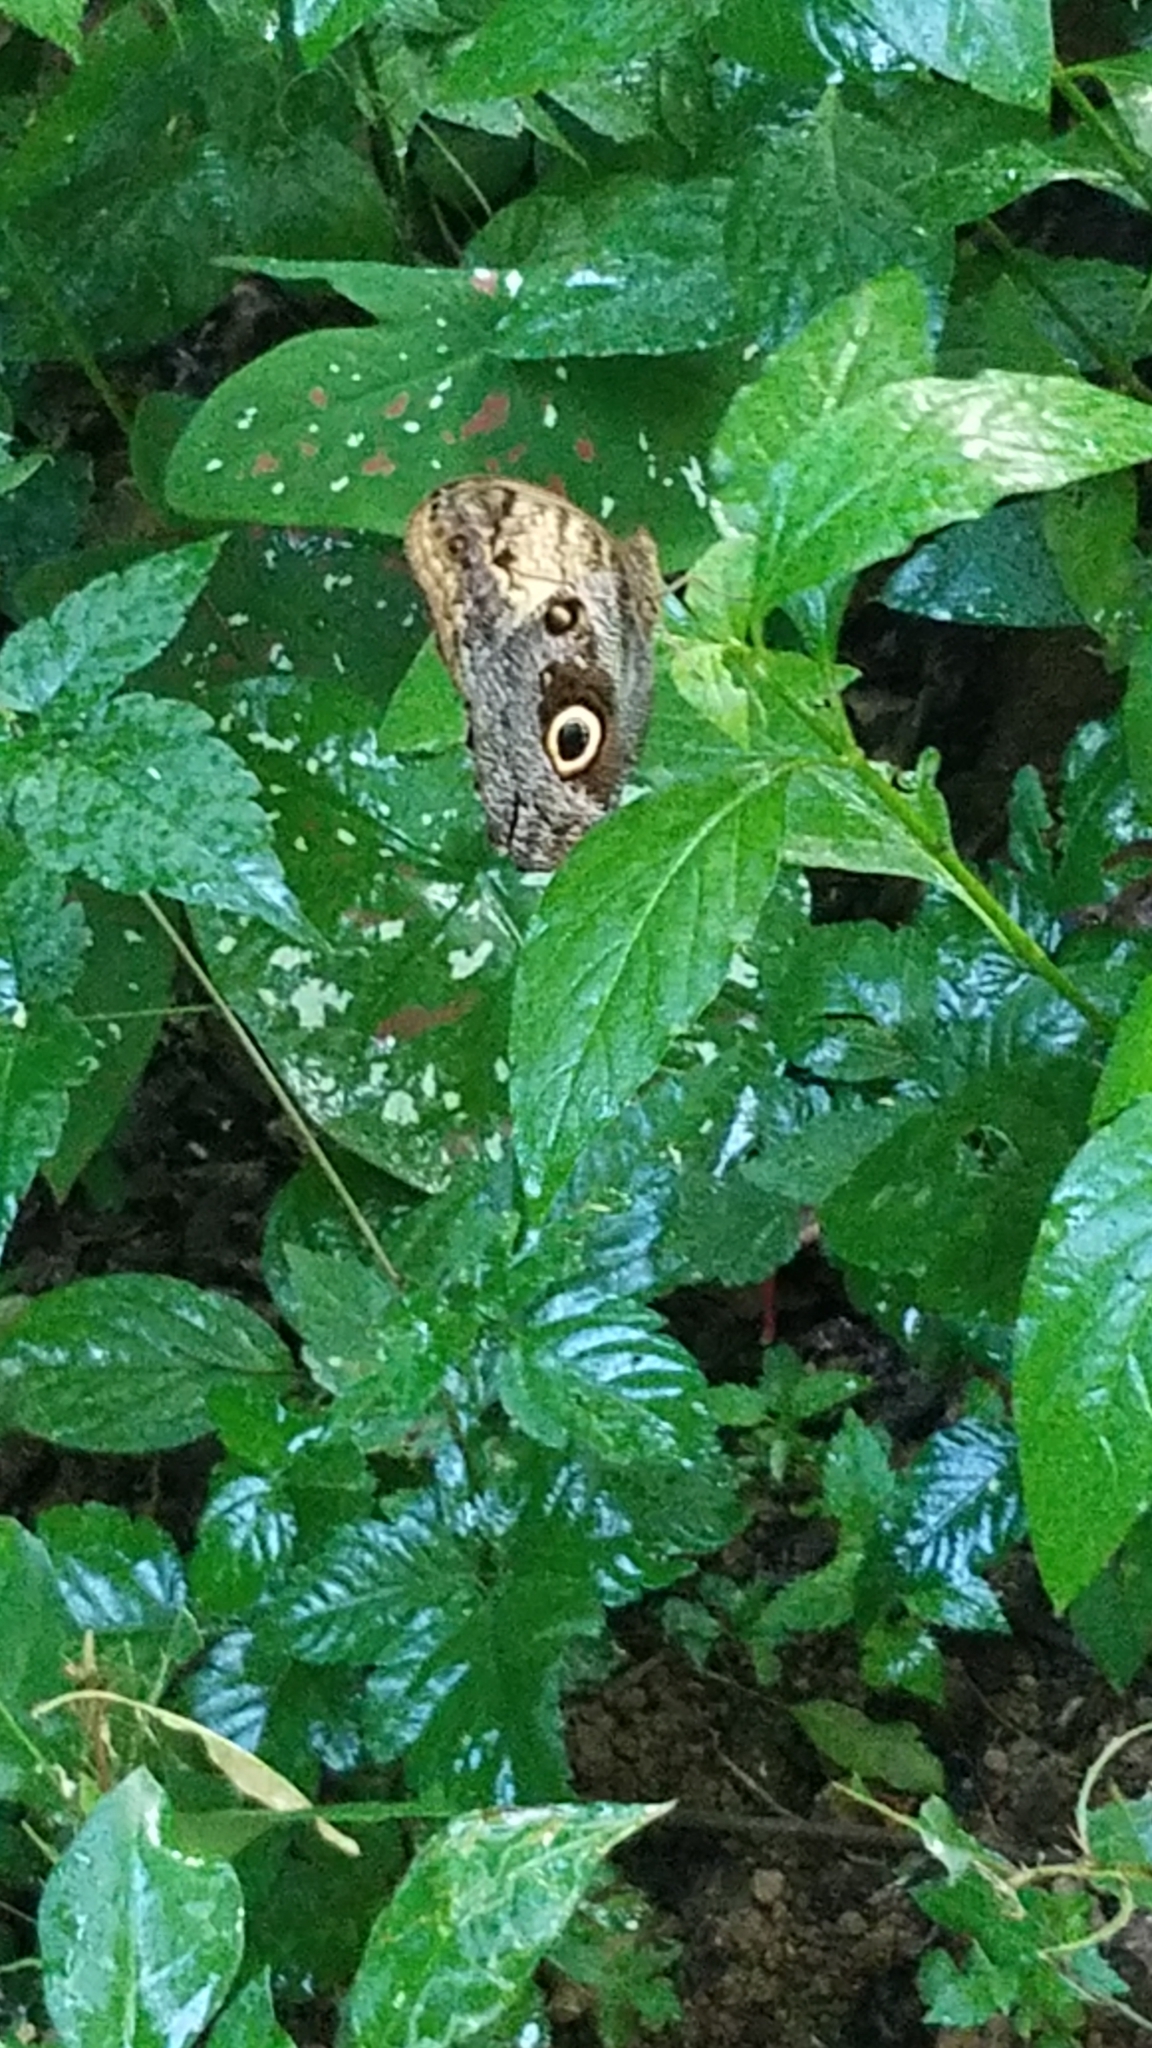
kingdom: Animalia
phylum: Arthropoda
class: Insecta
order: Lepidoptera
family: Nymphalidae
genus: Caligo
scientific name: Caligo telamonius
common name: Pale owl-butterfly
